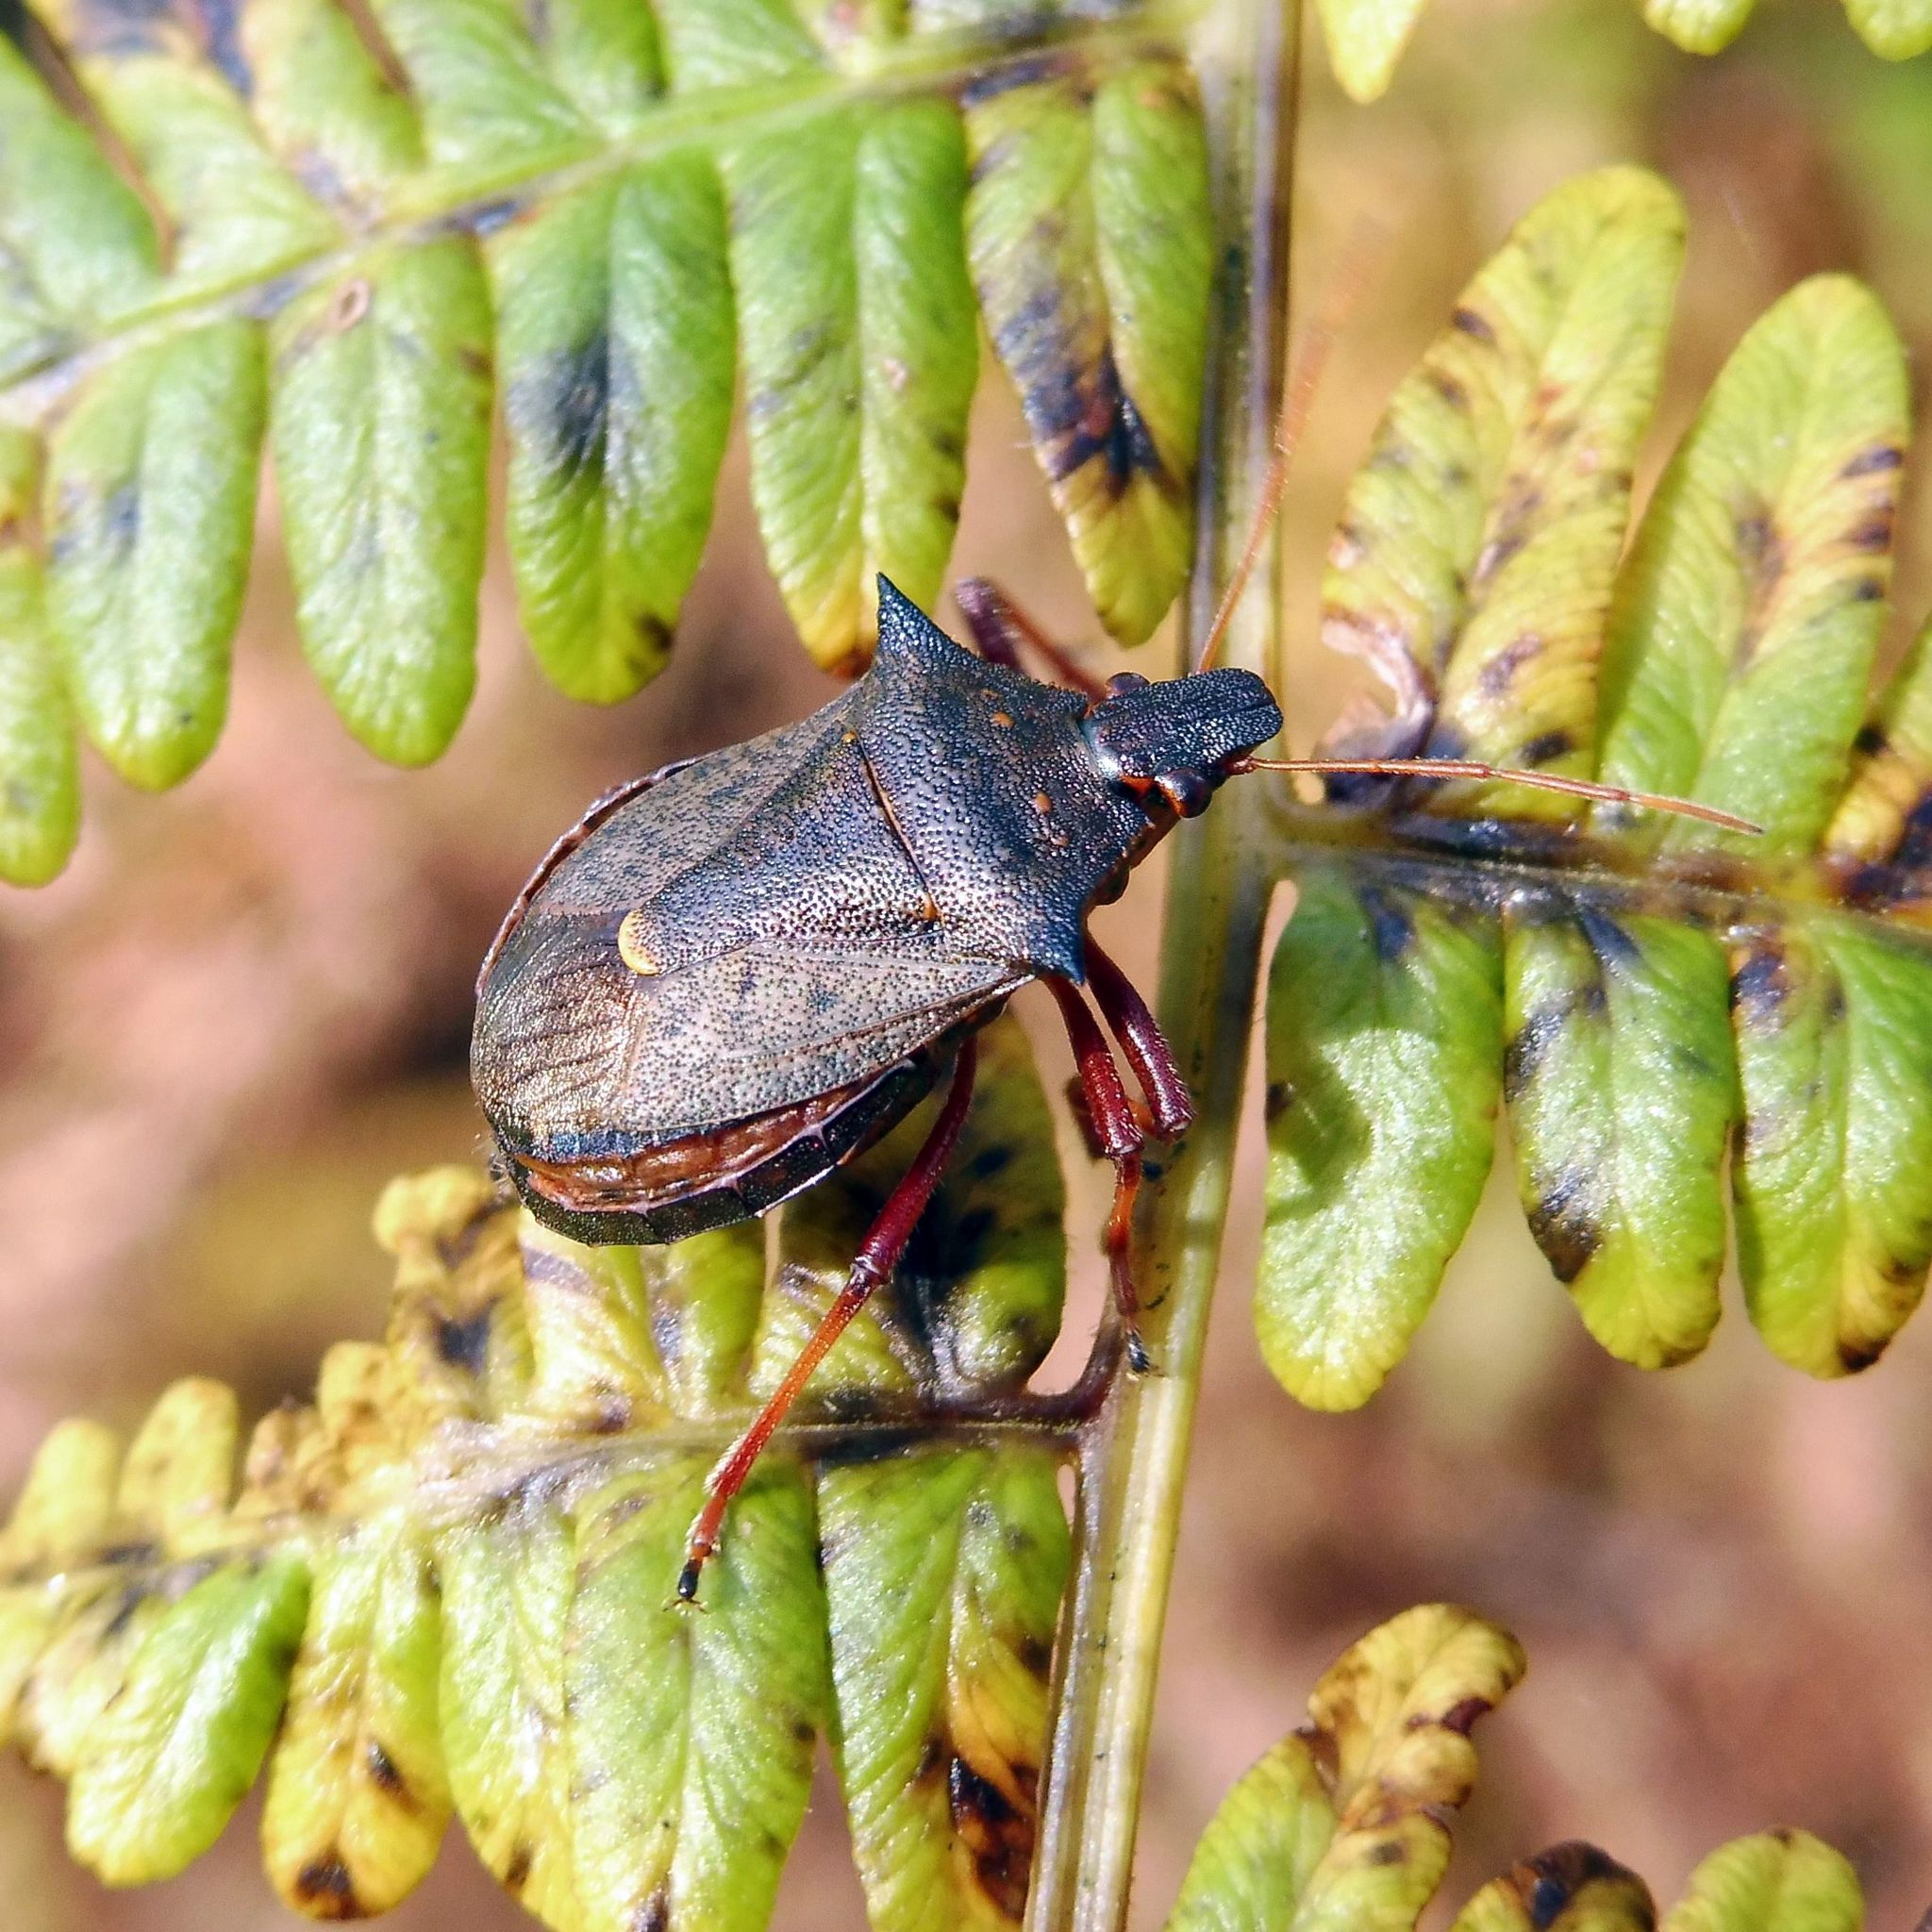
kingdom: Animalia
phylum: Arthropoda
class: Insecta
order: Hemiptera
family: Pentatomidae
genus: Picromerus
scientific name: Picromerus bidens
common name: Spiked shieldbug
